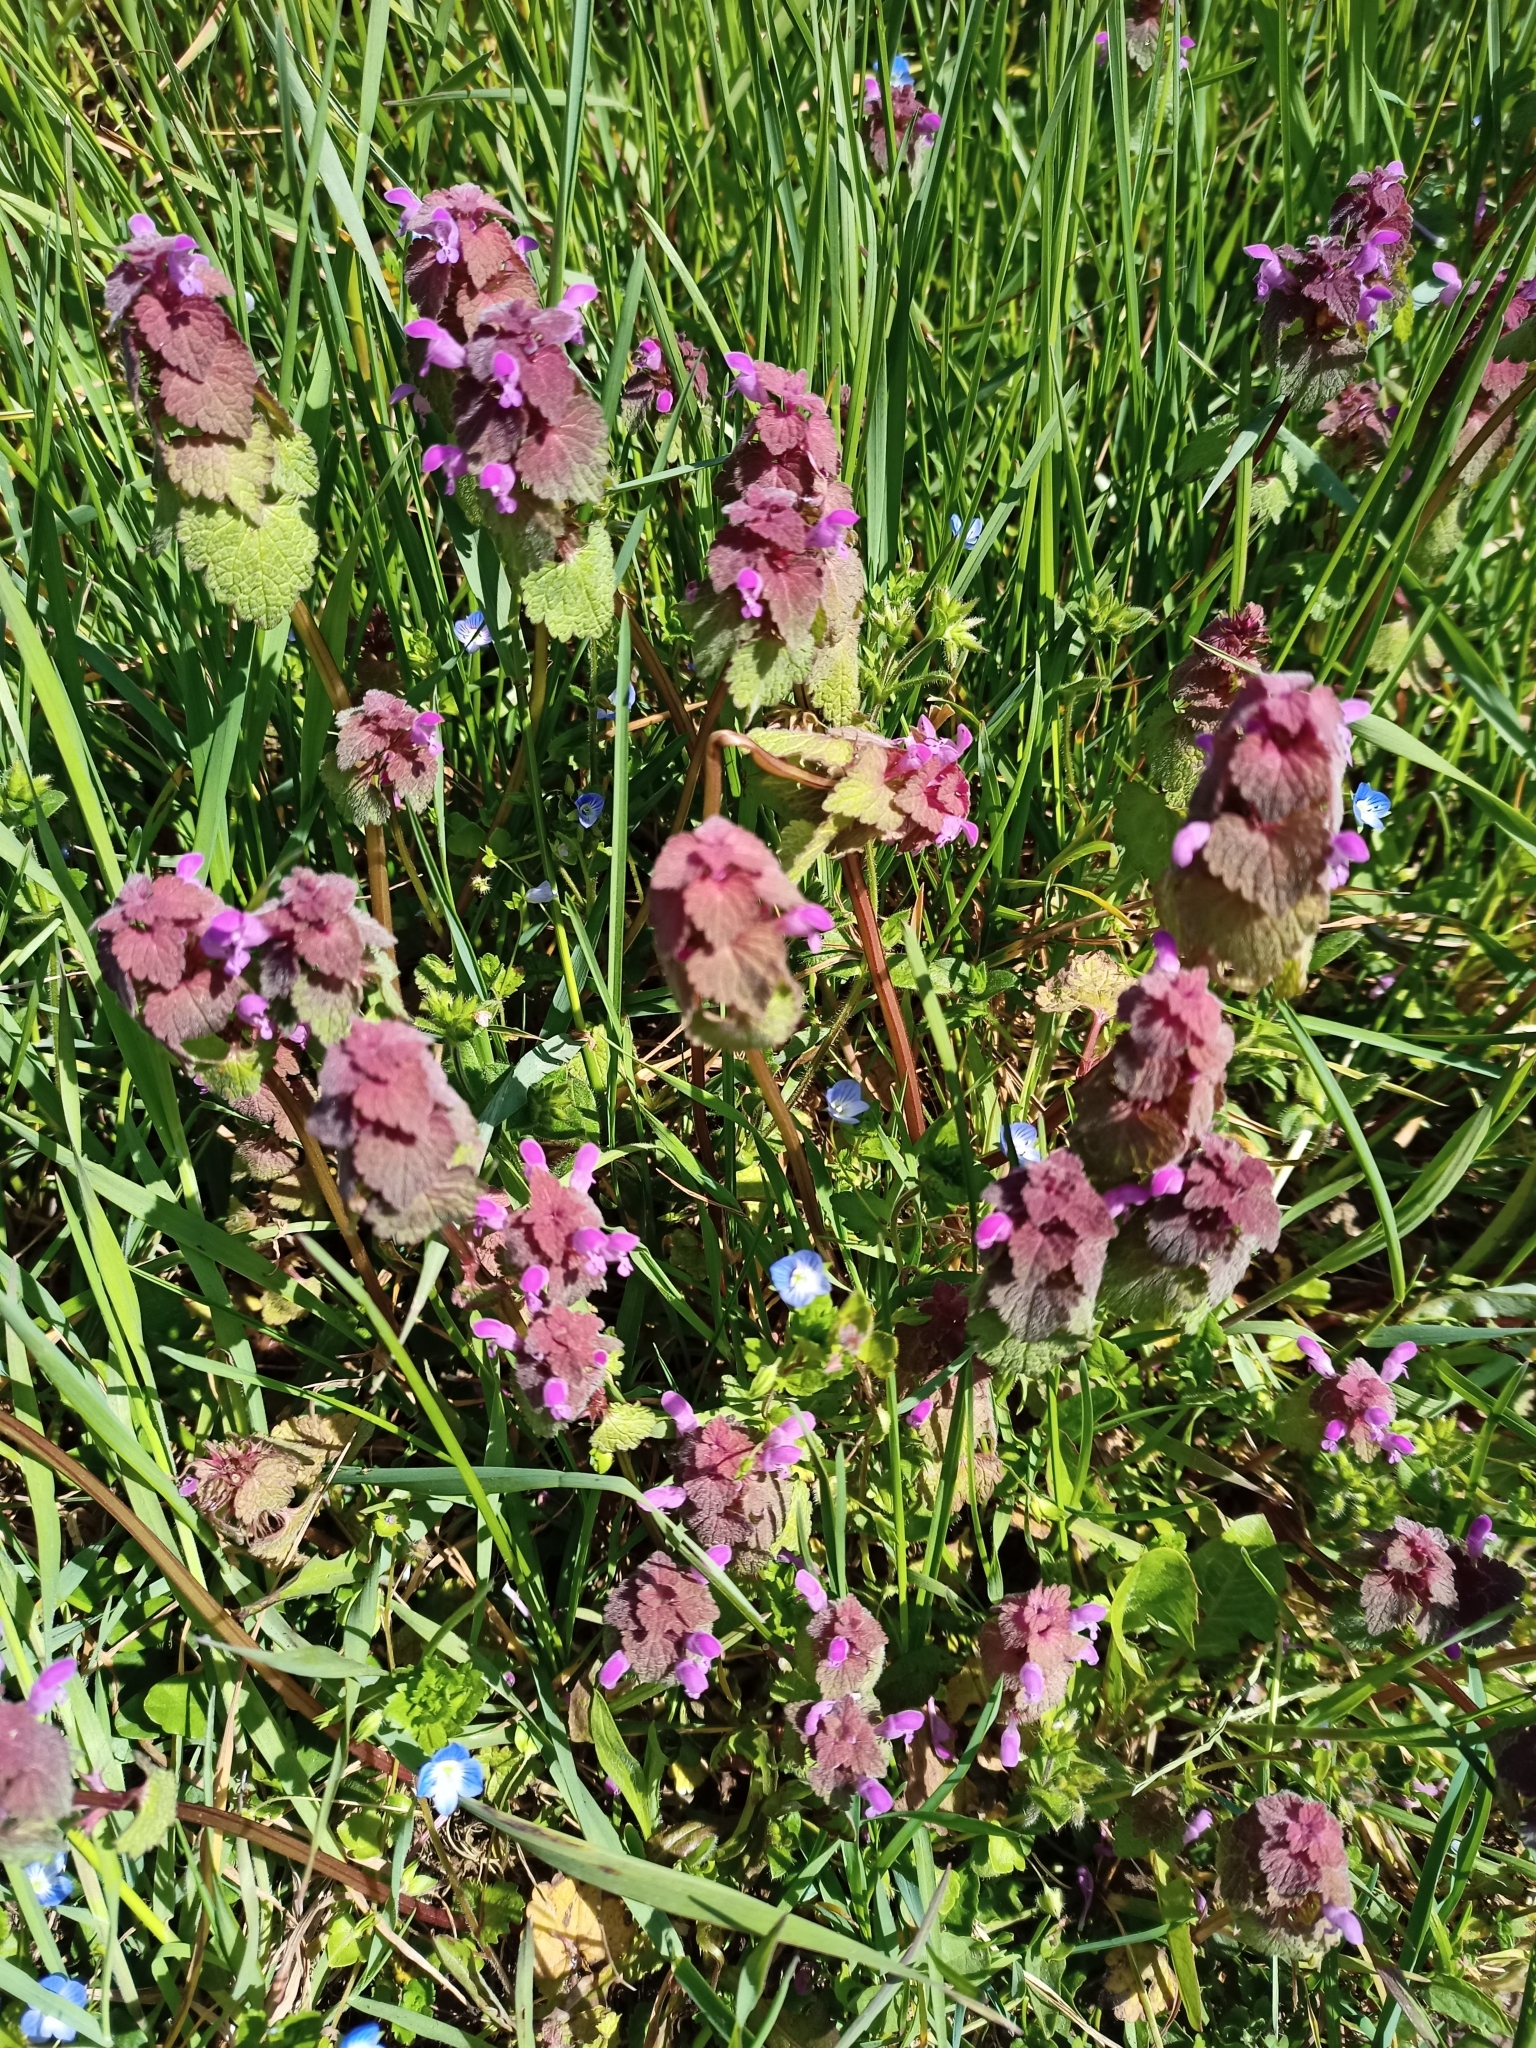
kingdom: Plantae
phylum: Tracheophyta
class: Magnoliopsida
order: Lamiales
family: Lamiaceae
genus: Lamium
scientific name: Lamium purpureum
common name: Red dead-nettle
